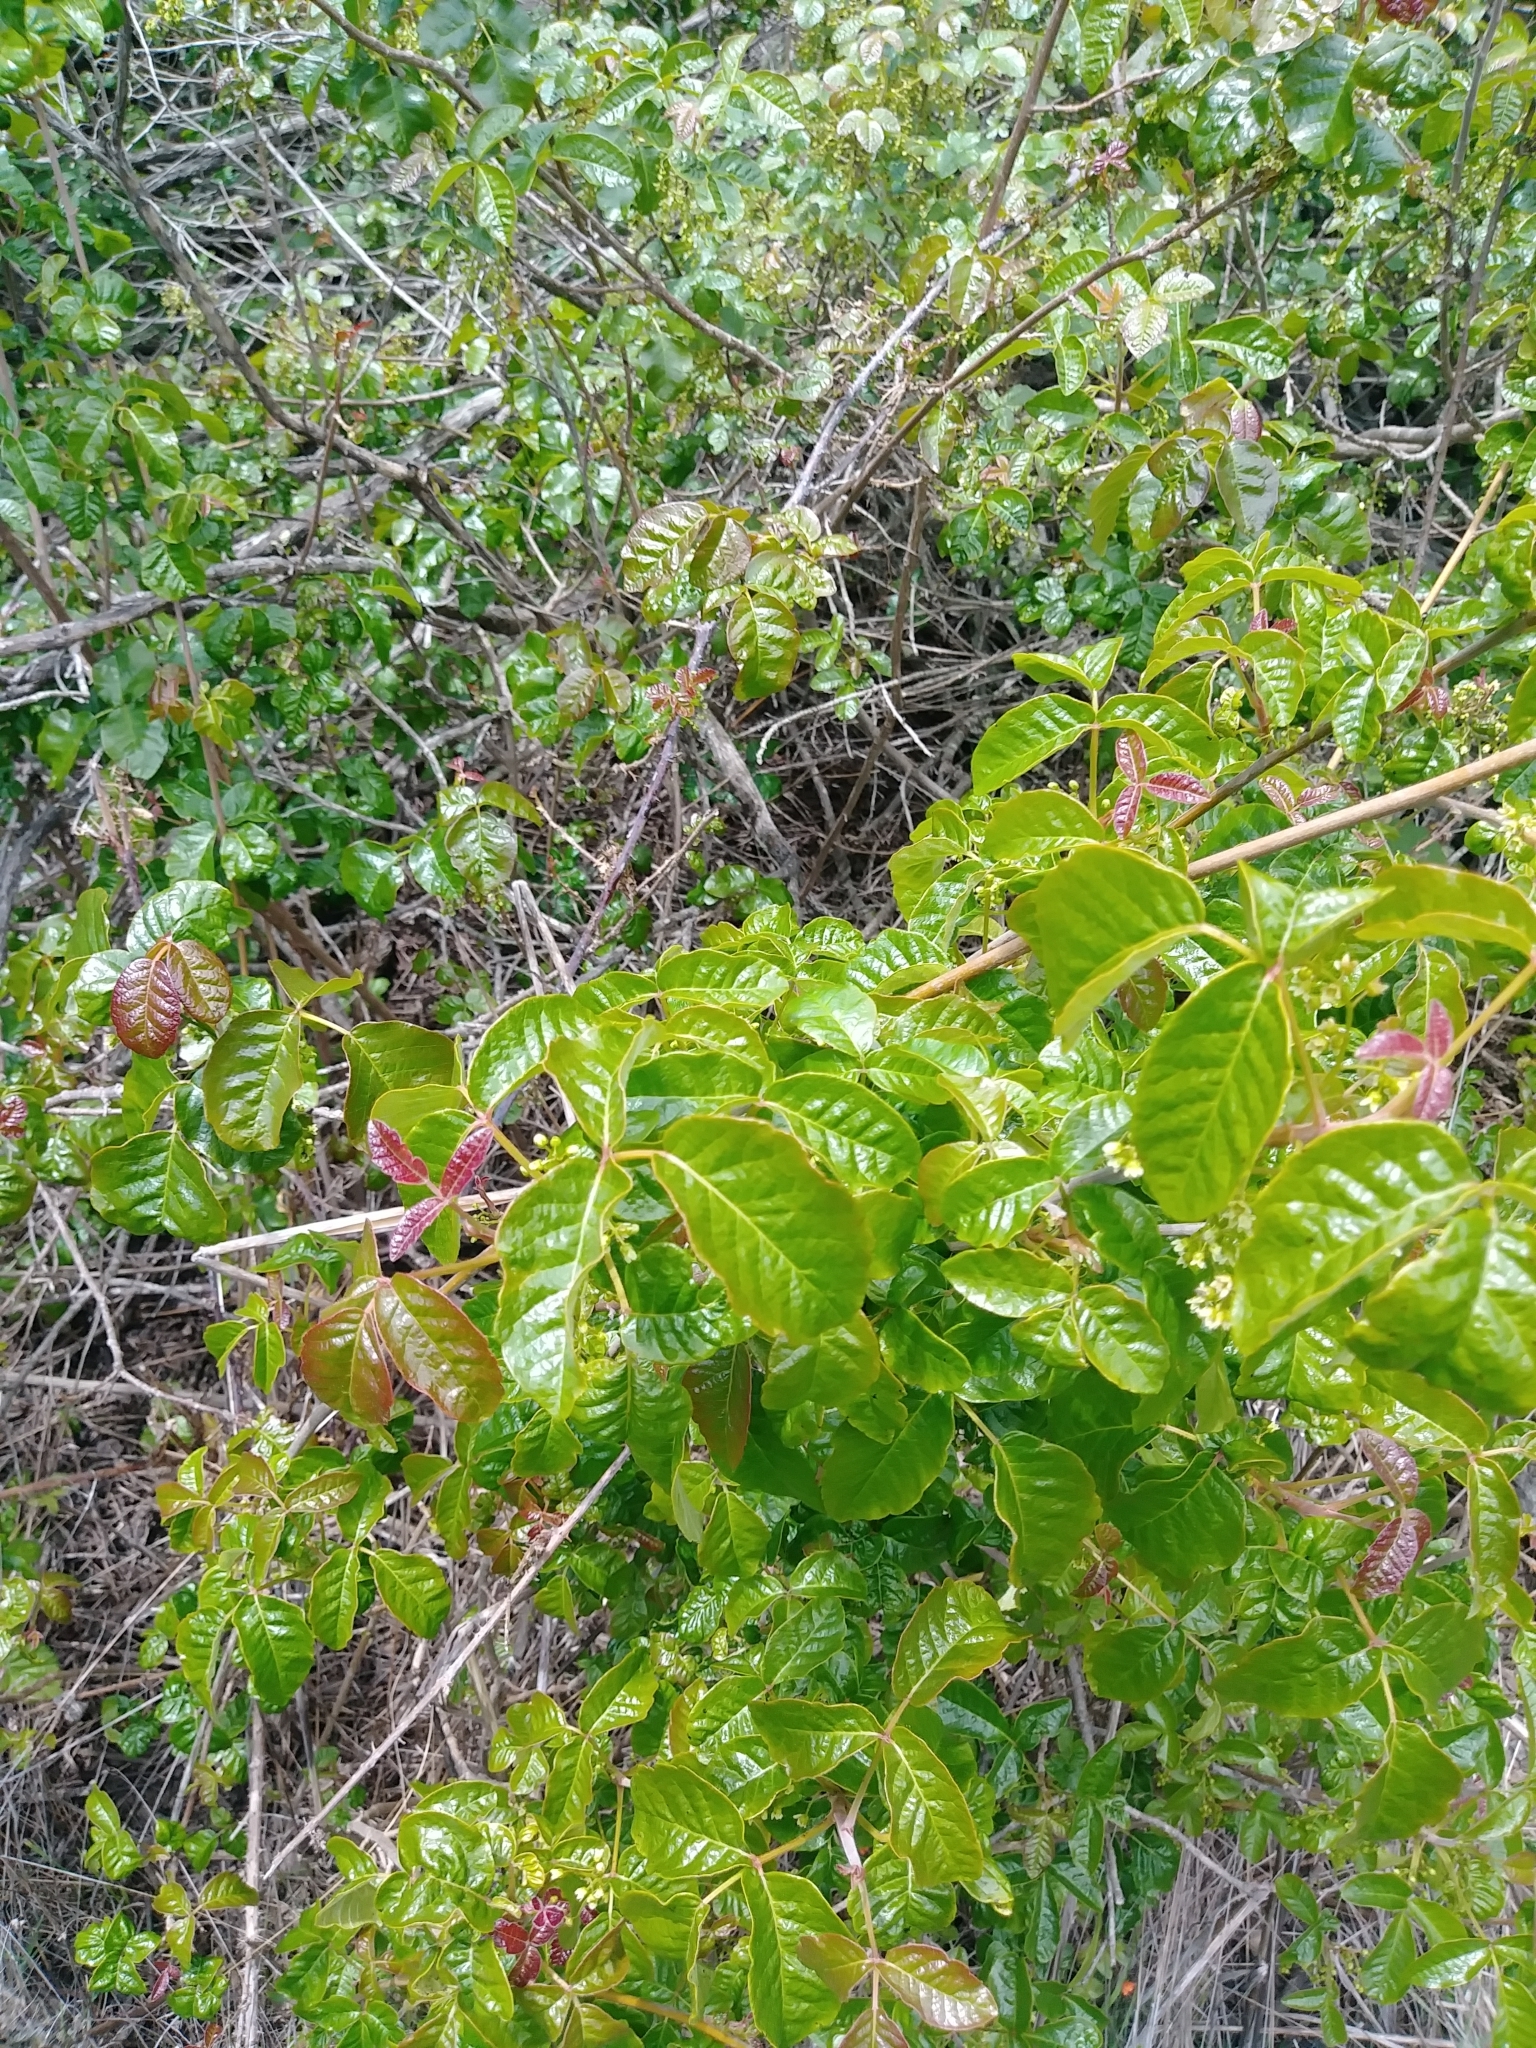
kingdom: Plantae
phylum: Tracheophyta
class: Magnoliopsida
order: Sapindales
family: Anacardiaceae
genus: Toxicodendron
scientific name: Toxicodendron diversilobum
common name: Pacific poison-oak
